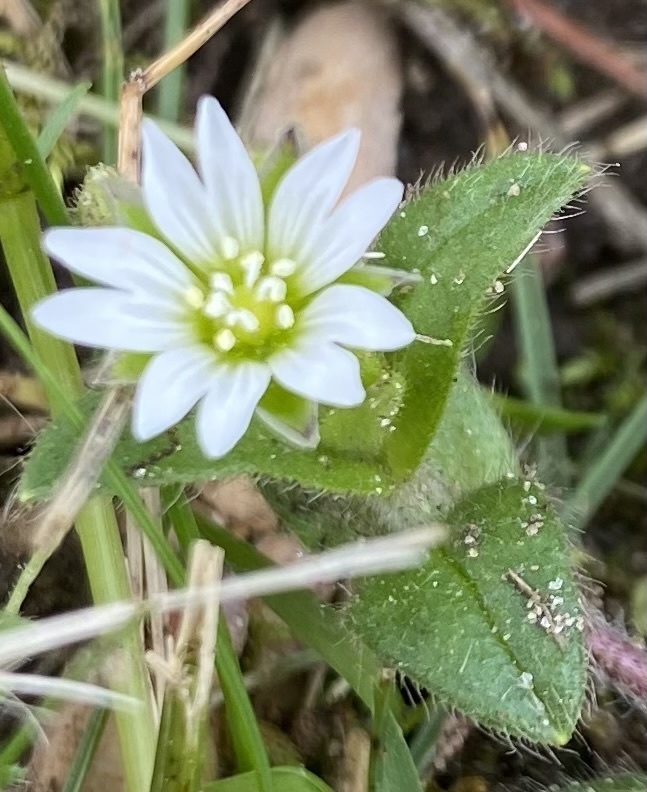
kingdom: Plantae
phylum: Tracheophyta
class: Magnoliopsida
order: Caryophyllales
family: Caryophyllaceae
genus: Cerastium
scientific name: Cerastium fontanum
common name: Common mouse-ear
